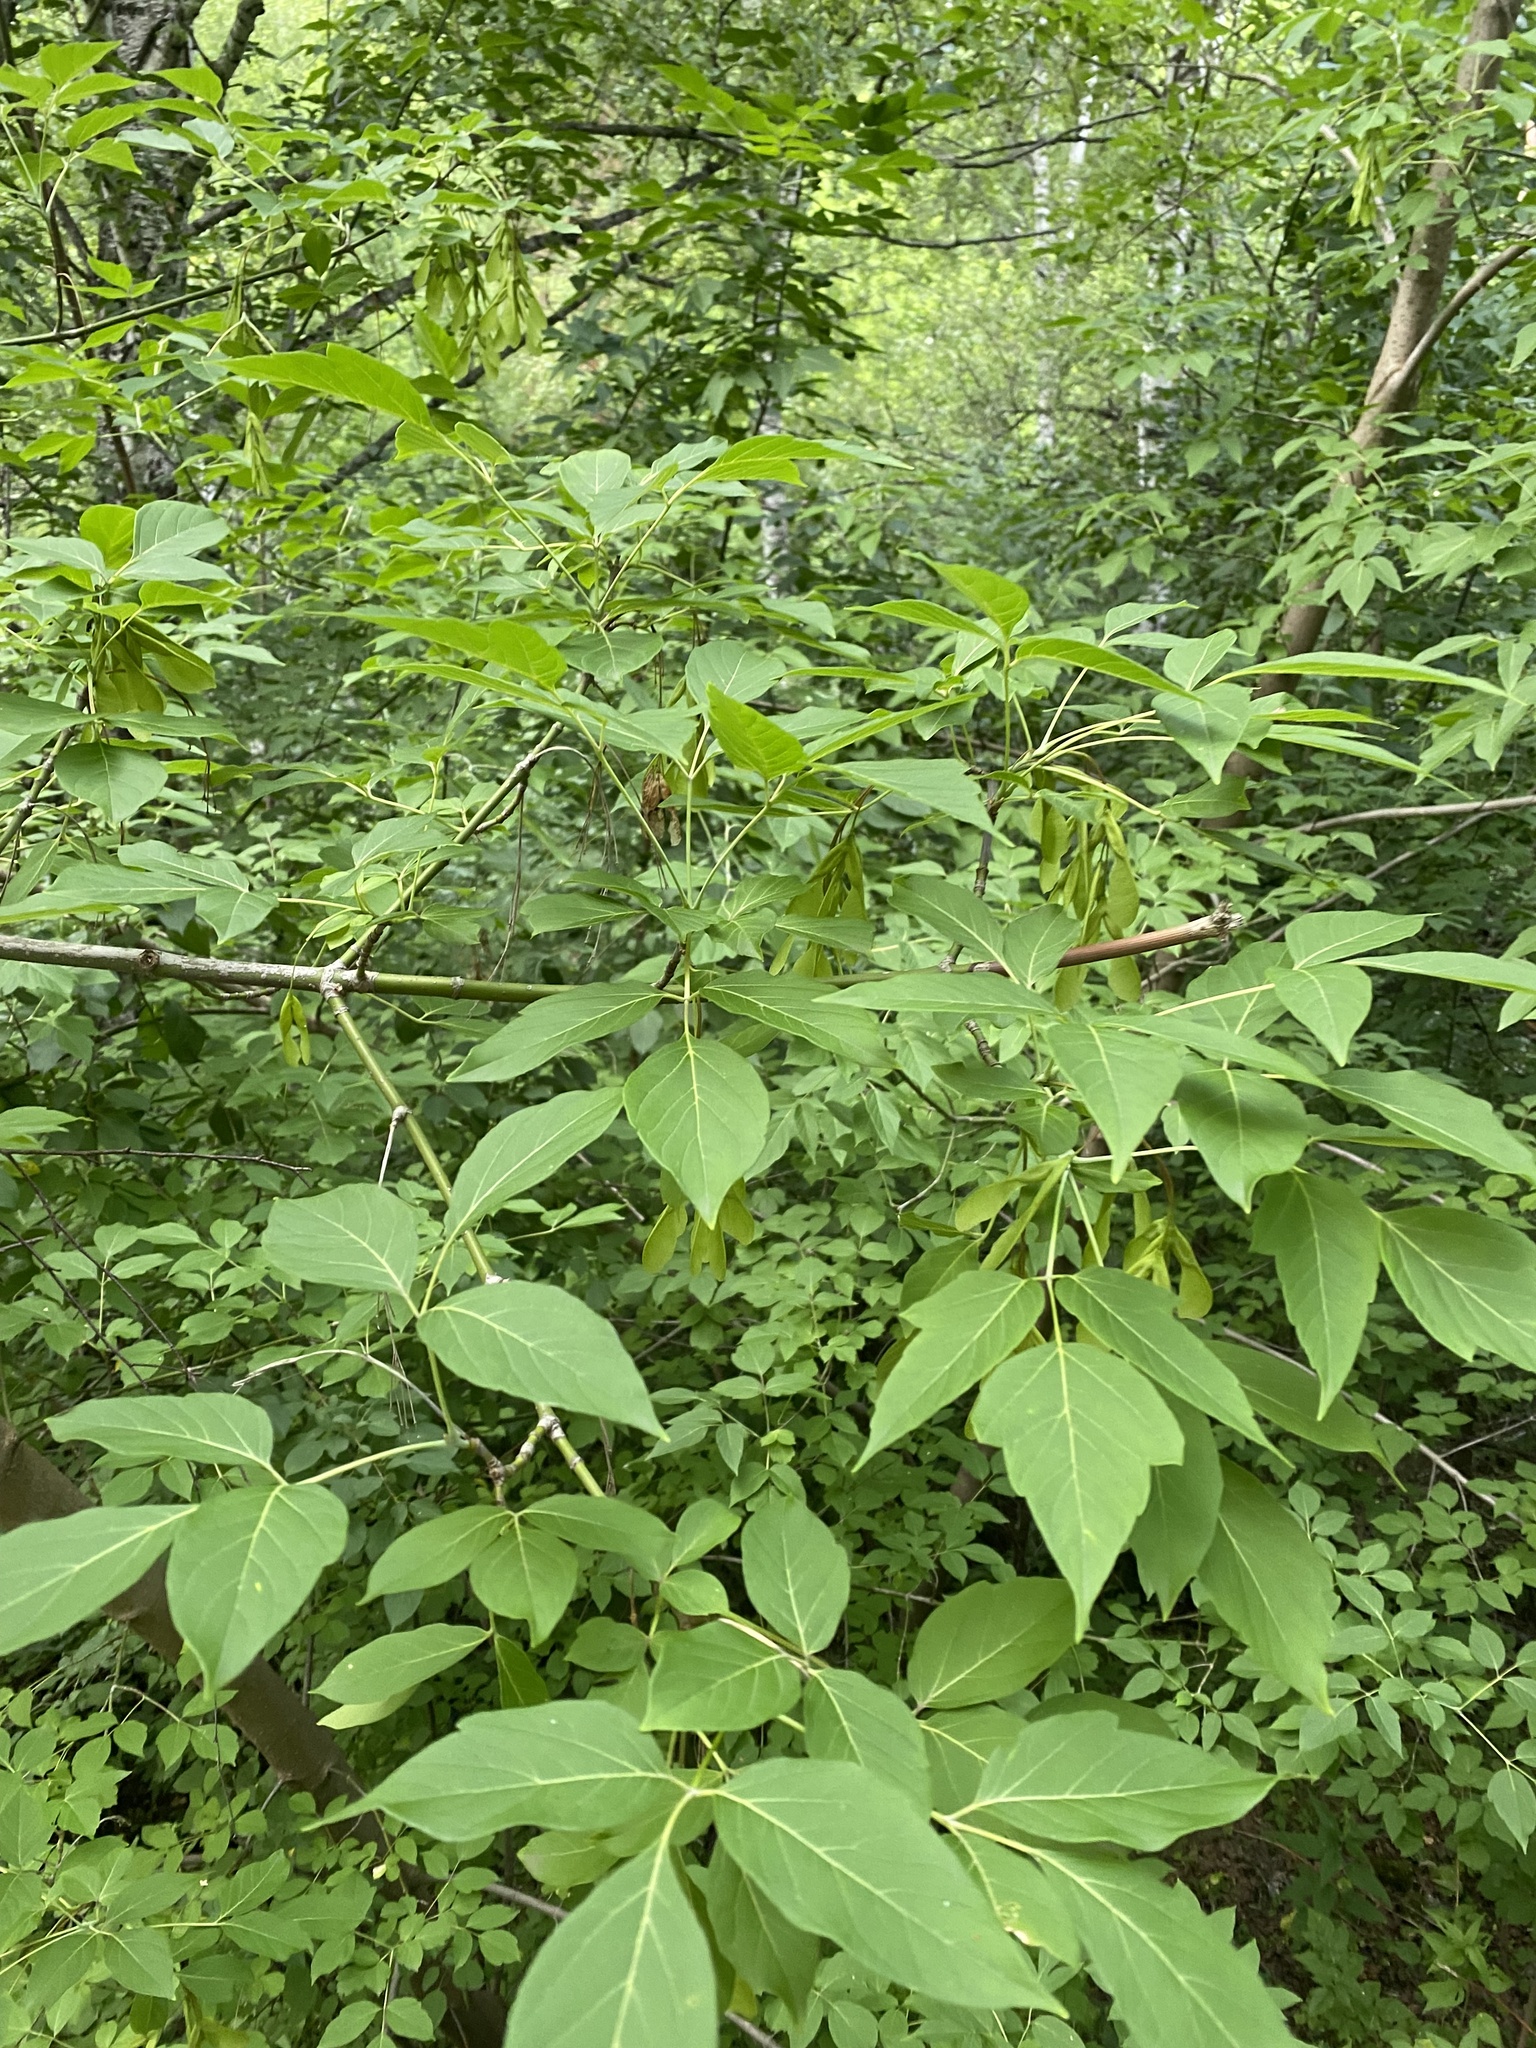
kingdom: Plantae
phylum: Tracheophyta
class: Magnoliopsida
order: Sapindales
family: Sapindaceae
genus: Acer
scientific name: Acer negundo
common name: Ashleaf maple
